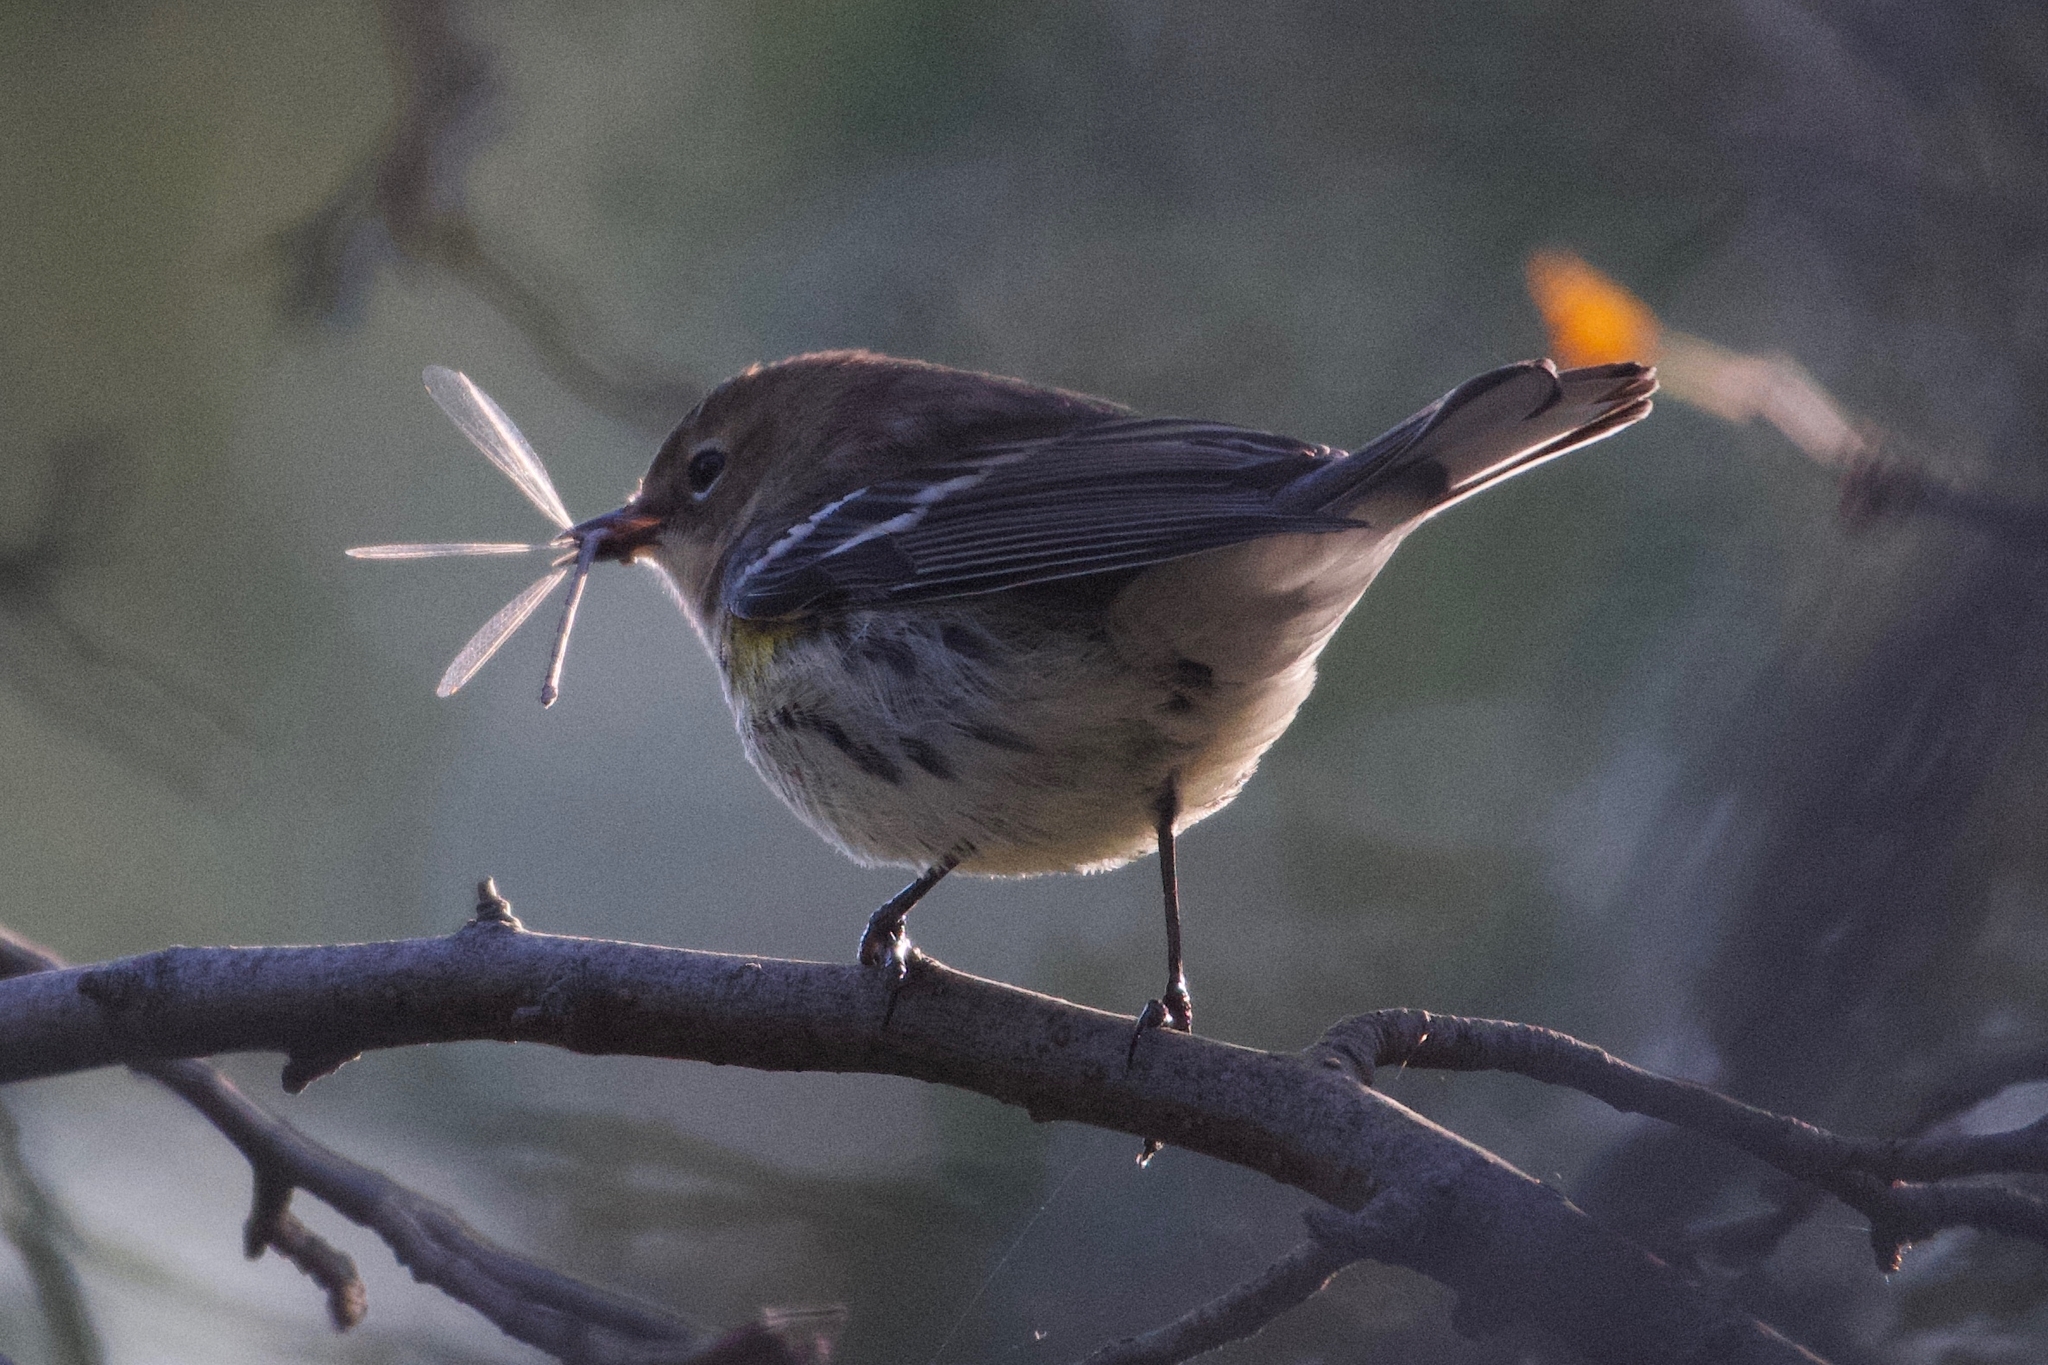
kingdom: Animalia
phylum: Chordata
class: Aves
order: Passeriformes
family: Parulidae
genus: Setophaga
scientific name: Setophaga coronata
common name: Myrtle warbler
